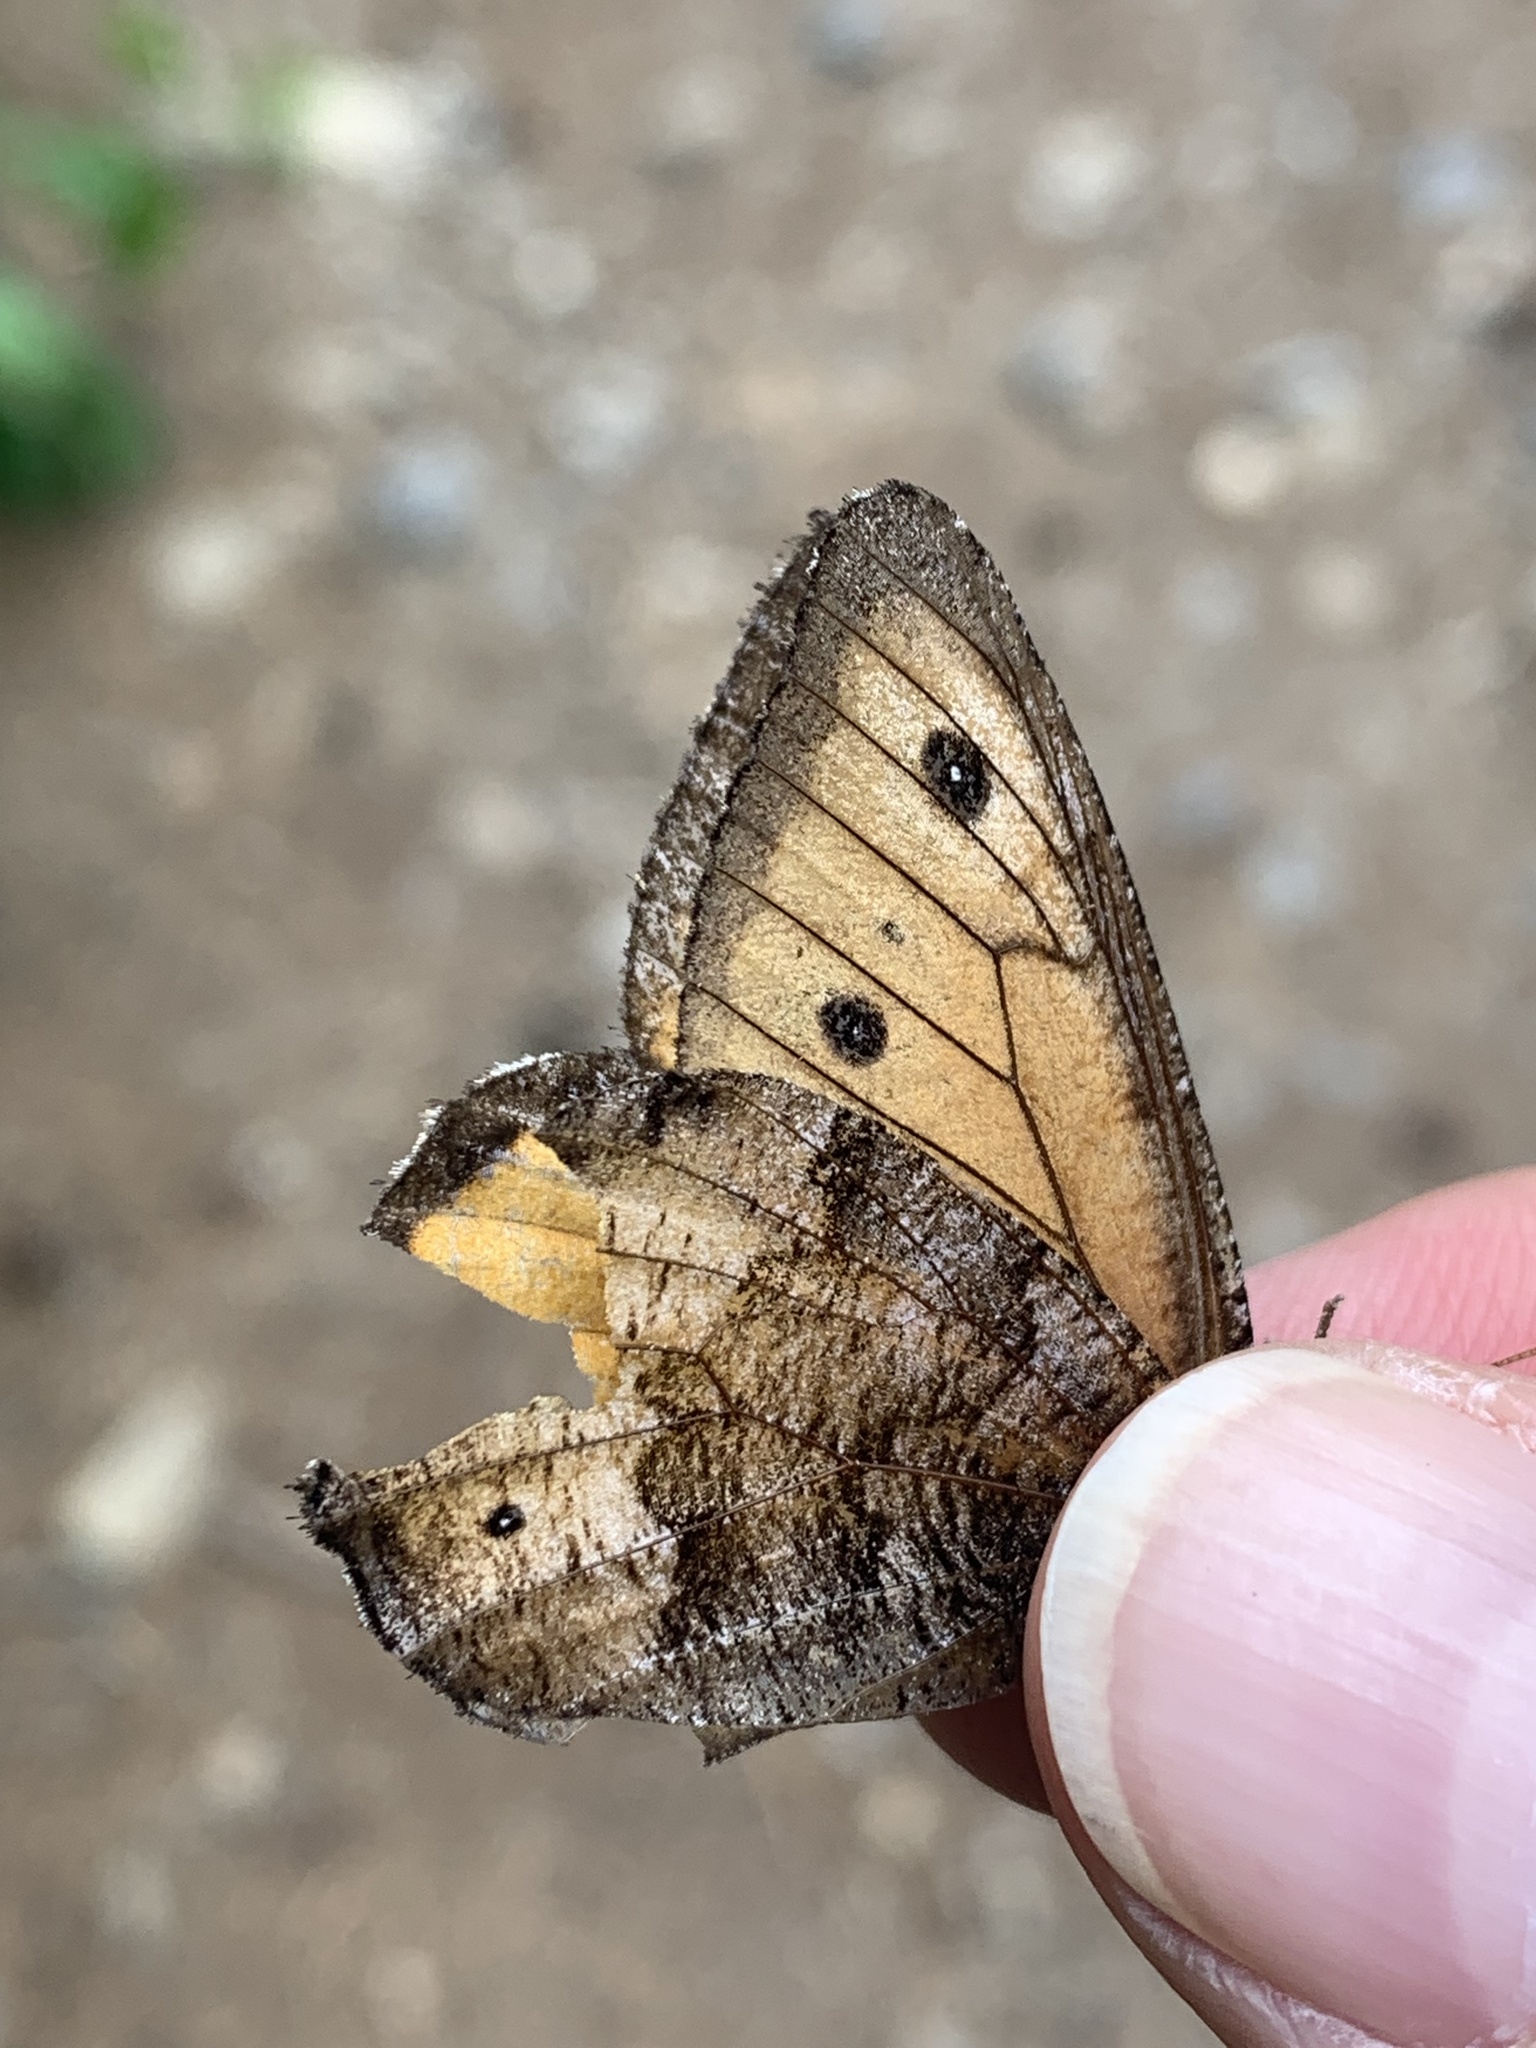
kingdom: Animalia
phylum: Arthropoda
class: Insecta
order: Lepidoptera
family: Nymphalidae
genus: Oeneis
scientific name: Oeneis macounii
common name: Macoun's arctic
